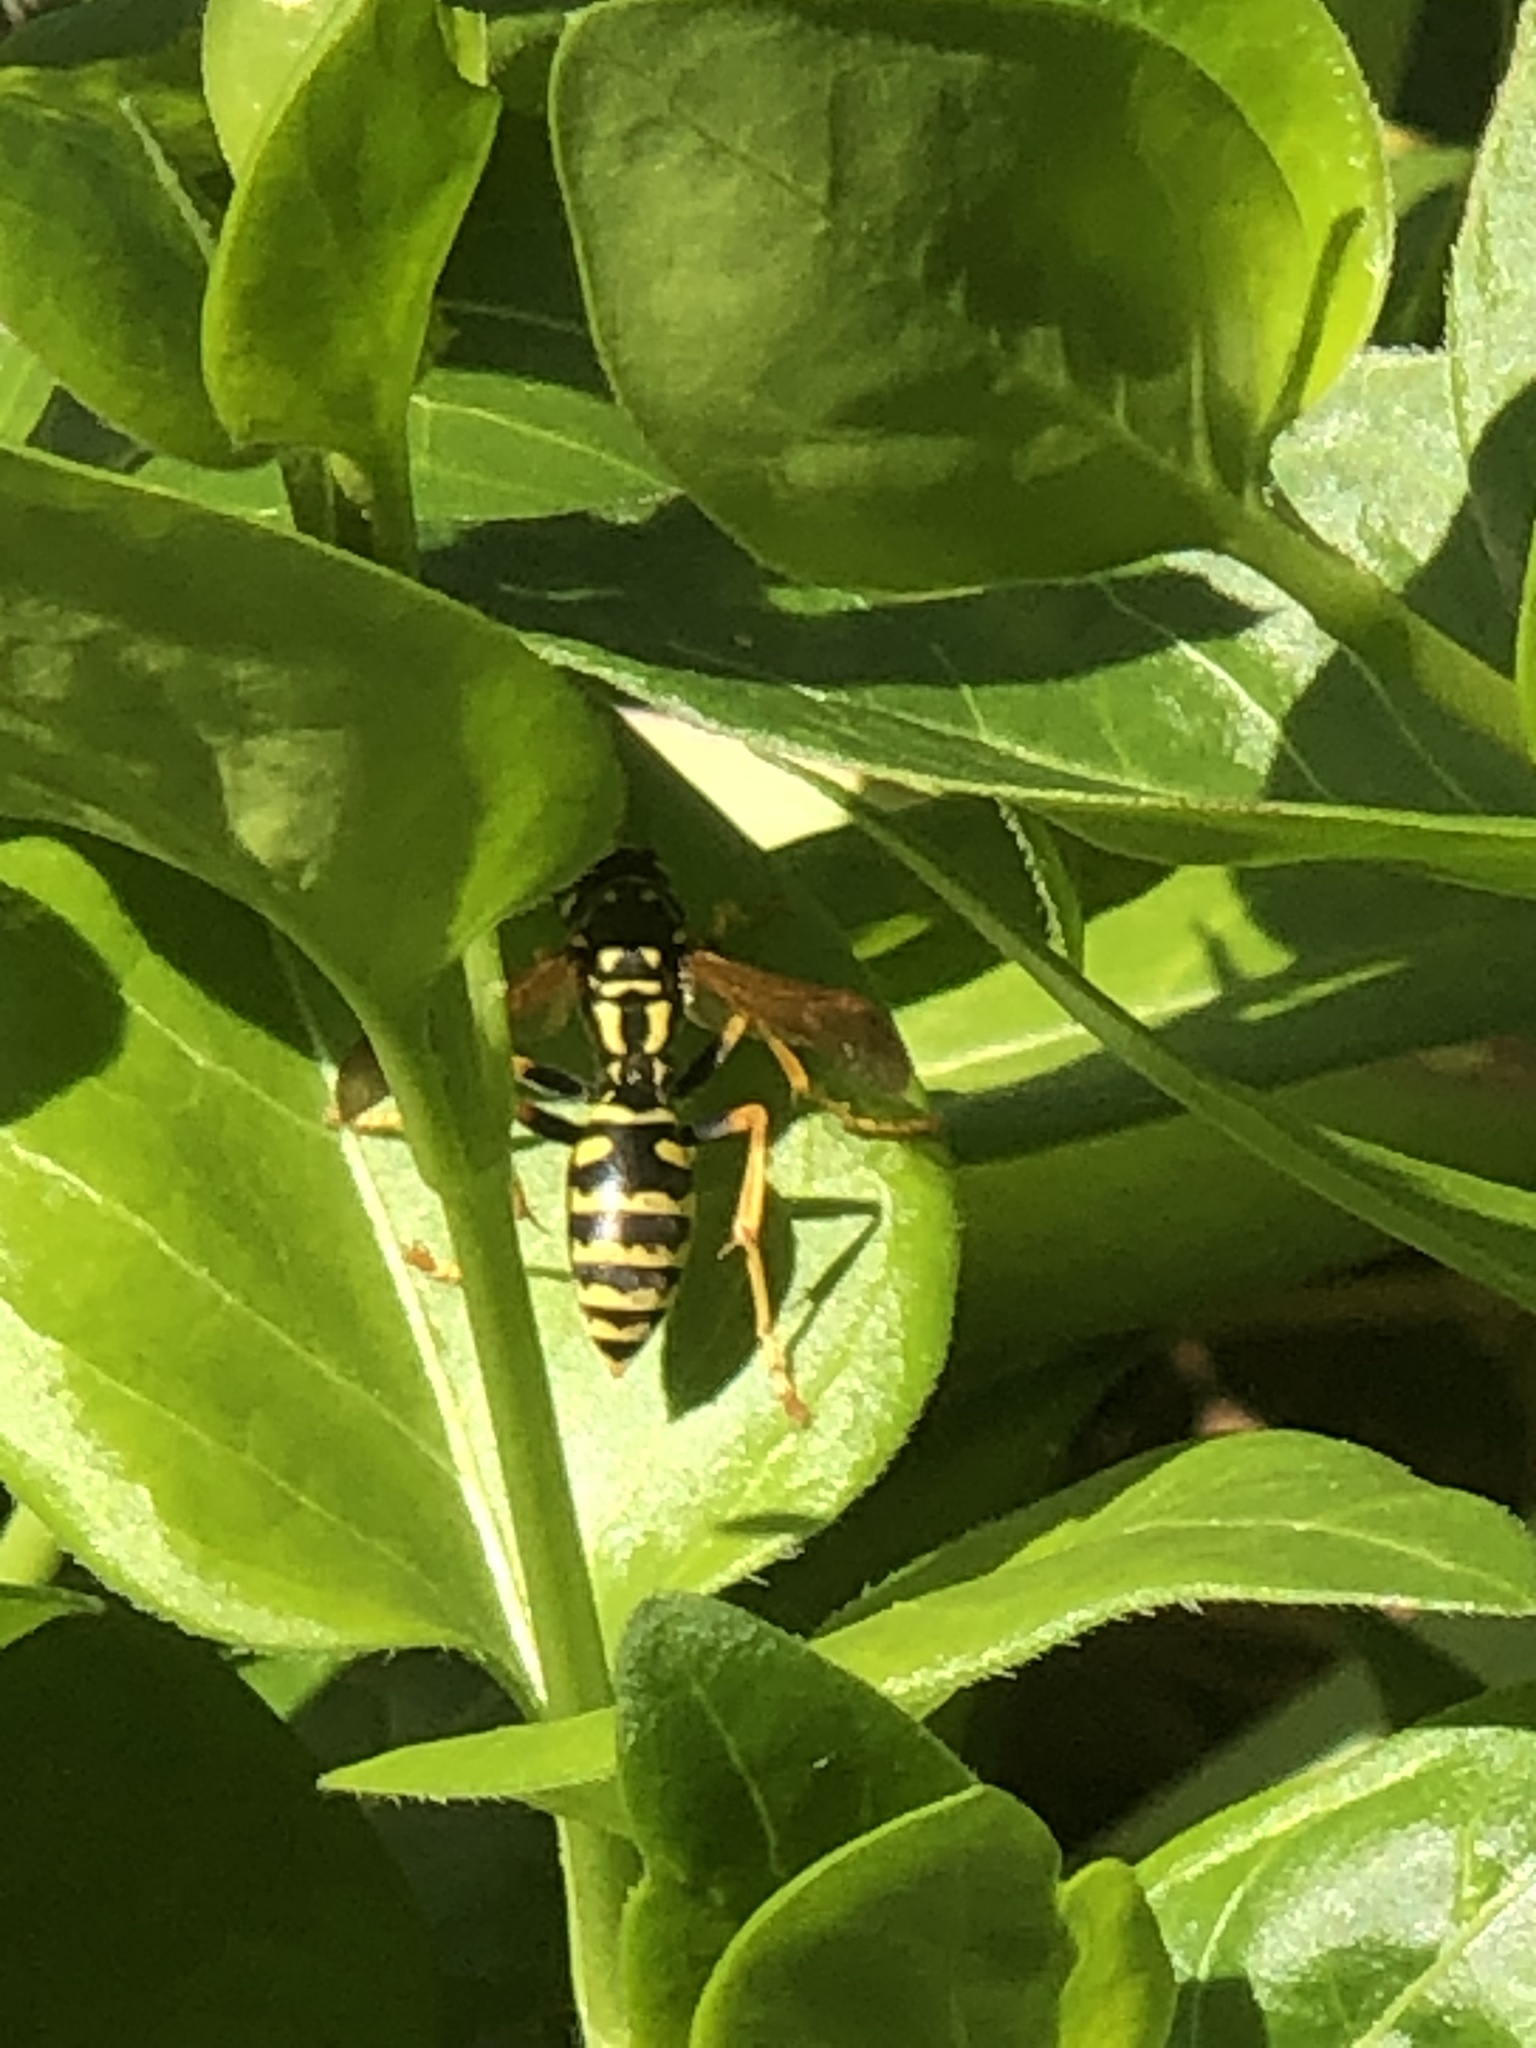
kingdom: Animalia
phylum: Arthropoda
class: Insecta
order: Hymenoptera
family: Eumenidae
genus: Polistes
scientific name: Polistes dominula
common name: Paper wasp
